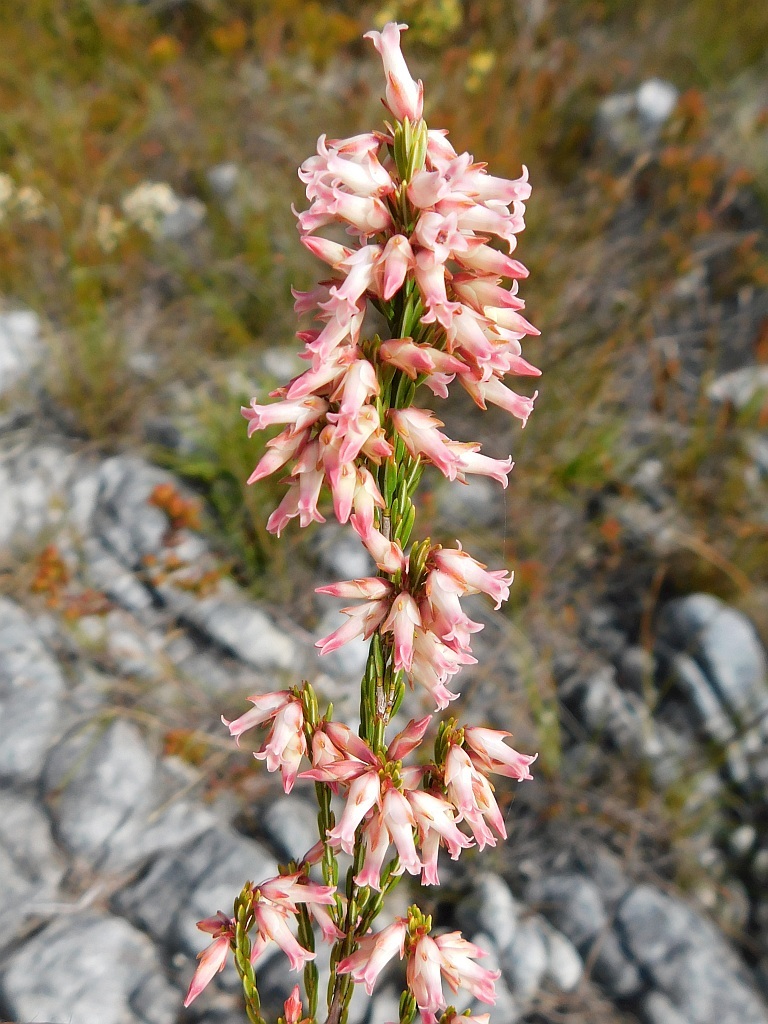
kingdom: Plantae
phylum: Tracheophyta
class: Magnoliopsida
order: Ericales
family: Ericaceae
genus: Erica
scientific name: Erica lutea
